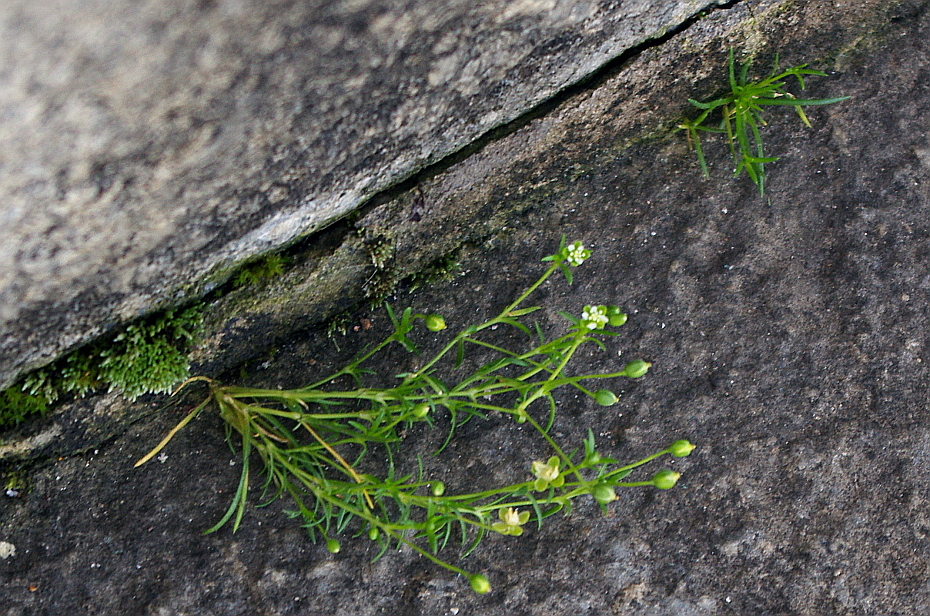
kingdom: Plantae
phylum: Tracheophyta
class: Magnoliopsida
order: Caryophyllales
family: Caryophyllaceae
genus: Sagina
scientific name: Sagina procumbens
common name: Procumbent pearlwort
